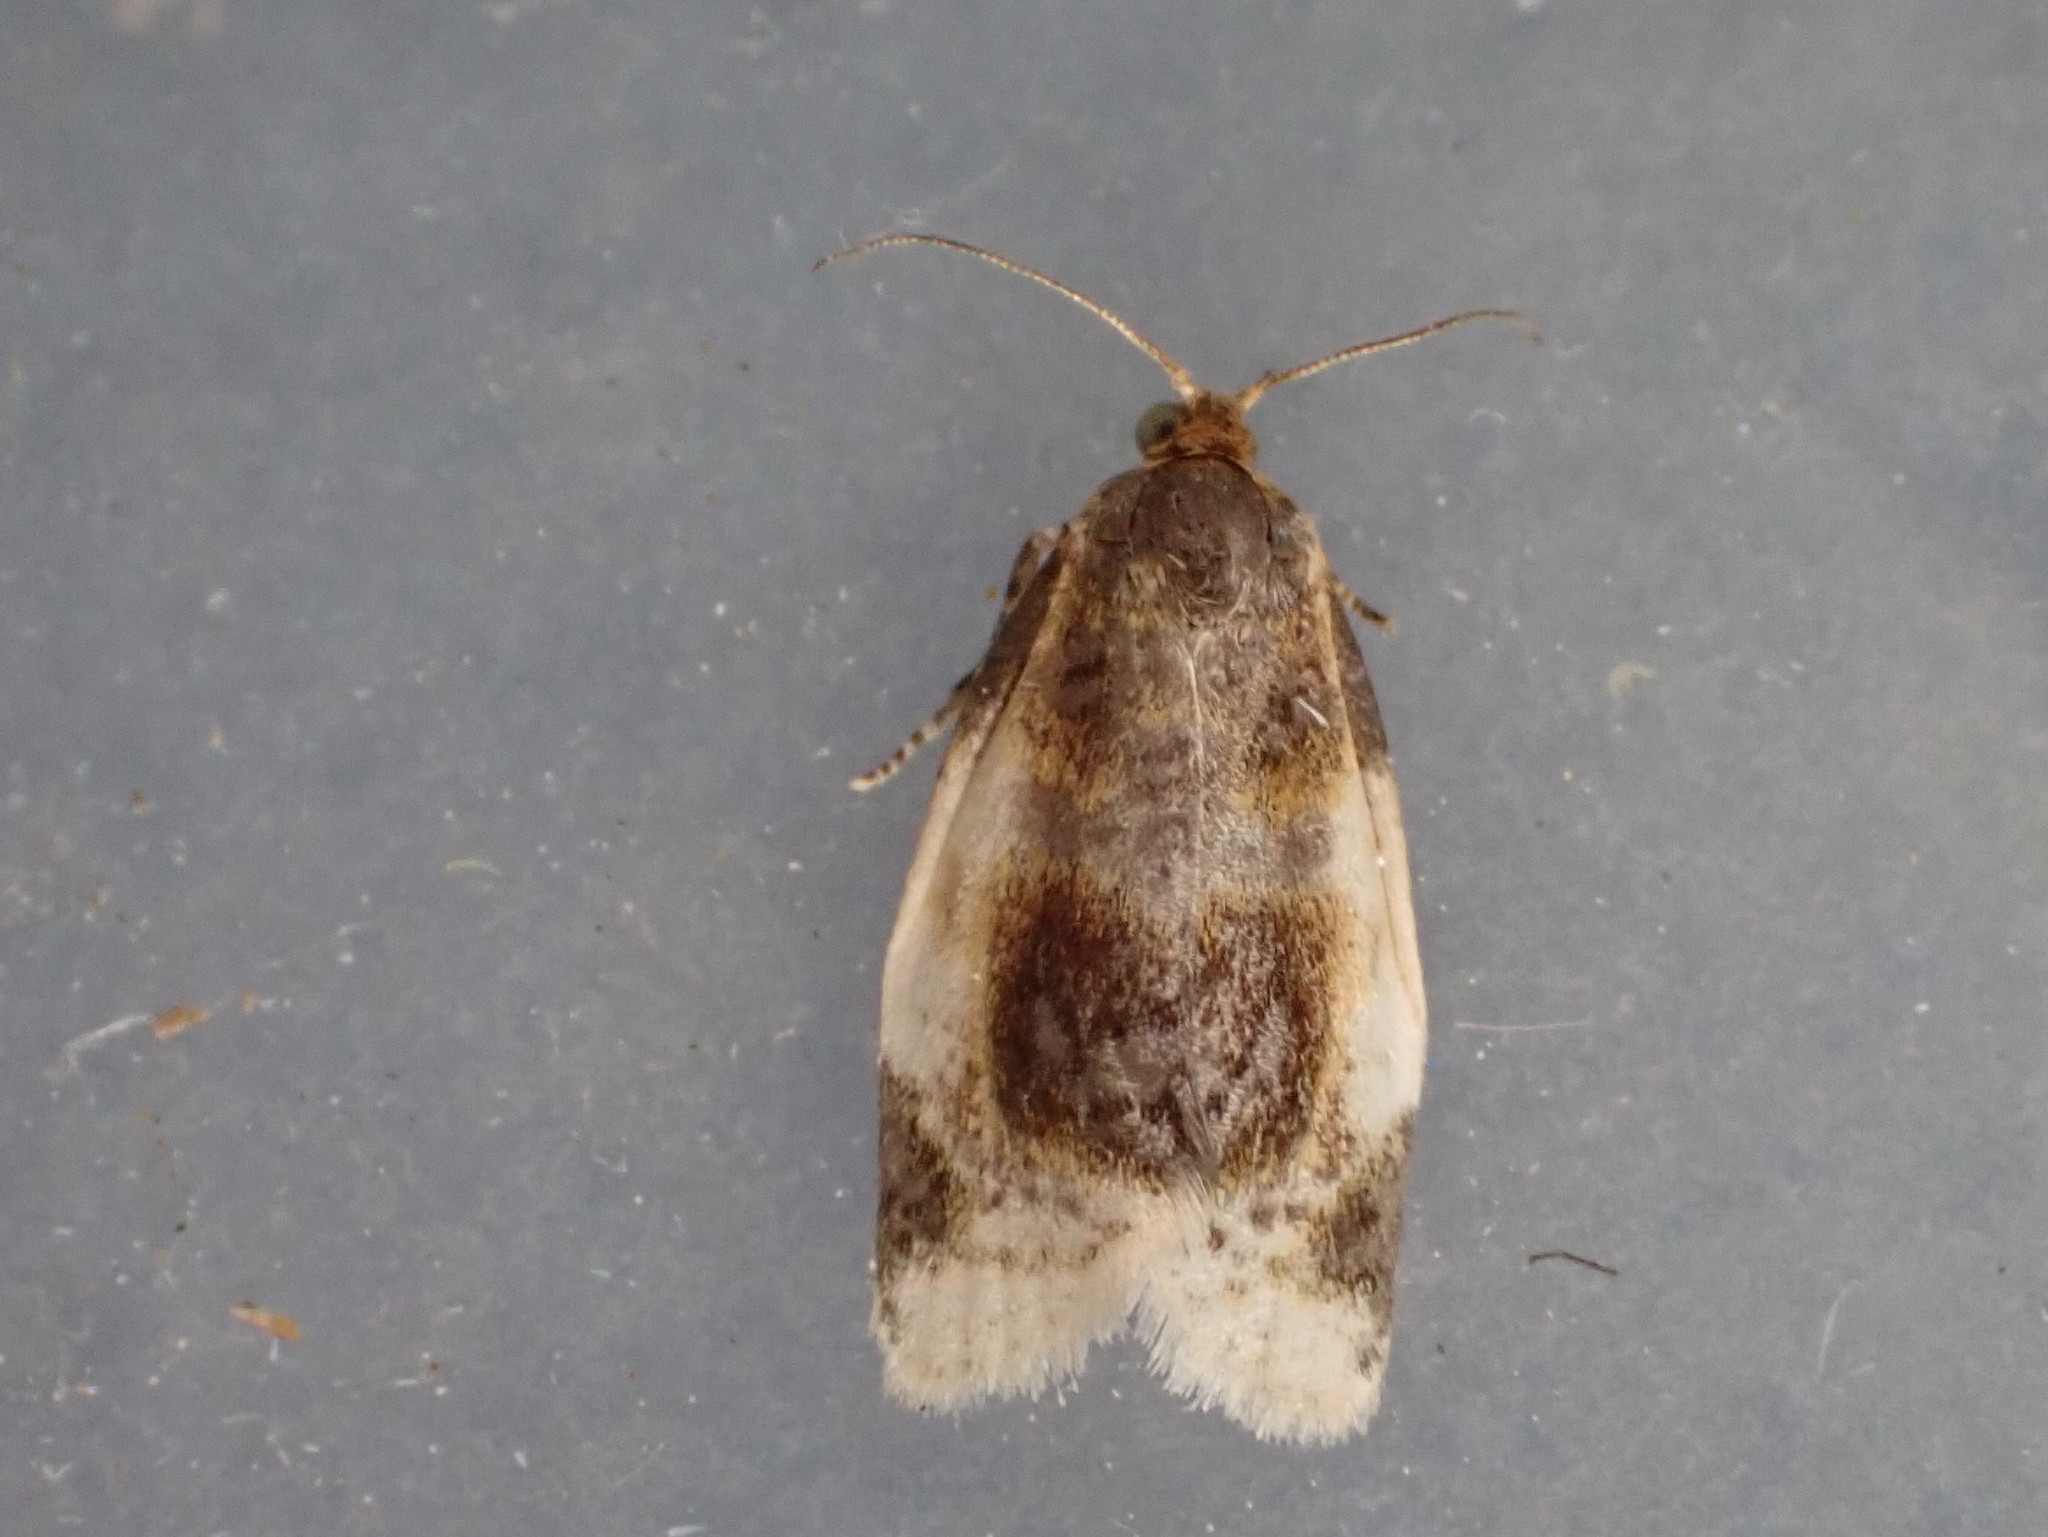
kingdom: Animalia
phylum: Arthropoda
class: Insecta
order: Lepidoptera
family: Tortricidae
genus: Clepsis
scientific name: Clepsis melaleucanus
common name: American apple tortrix
